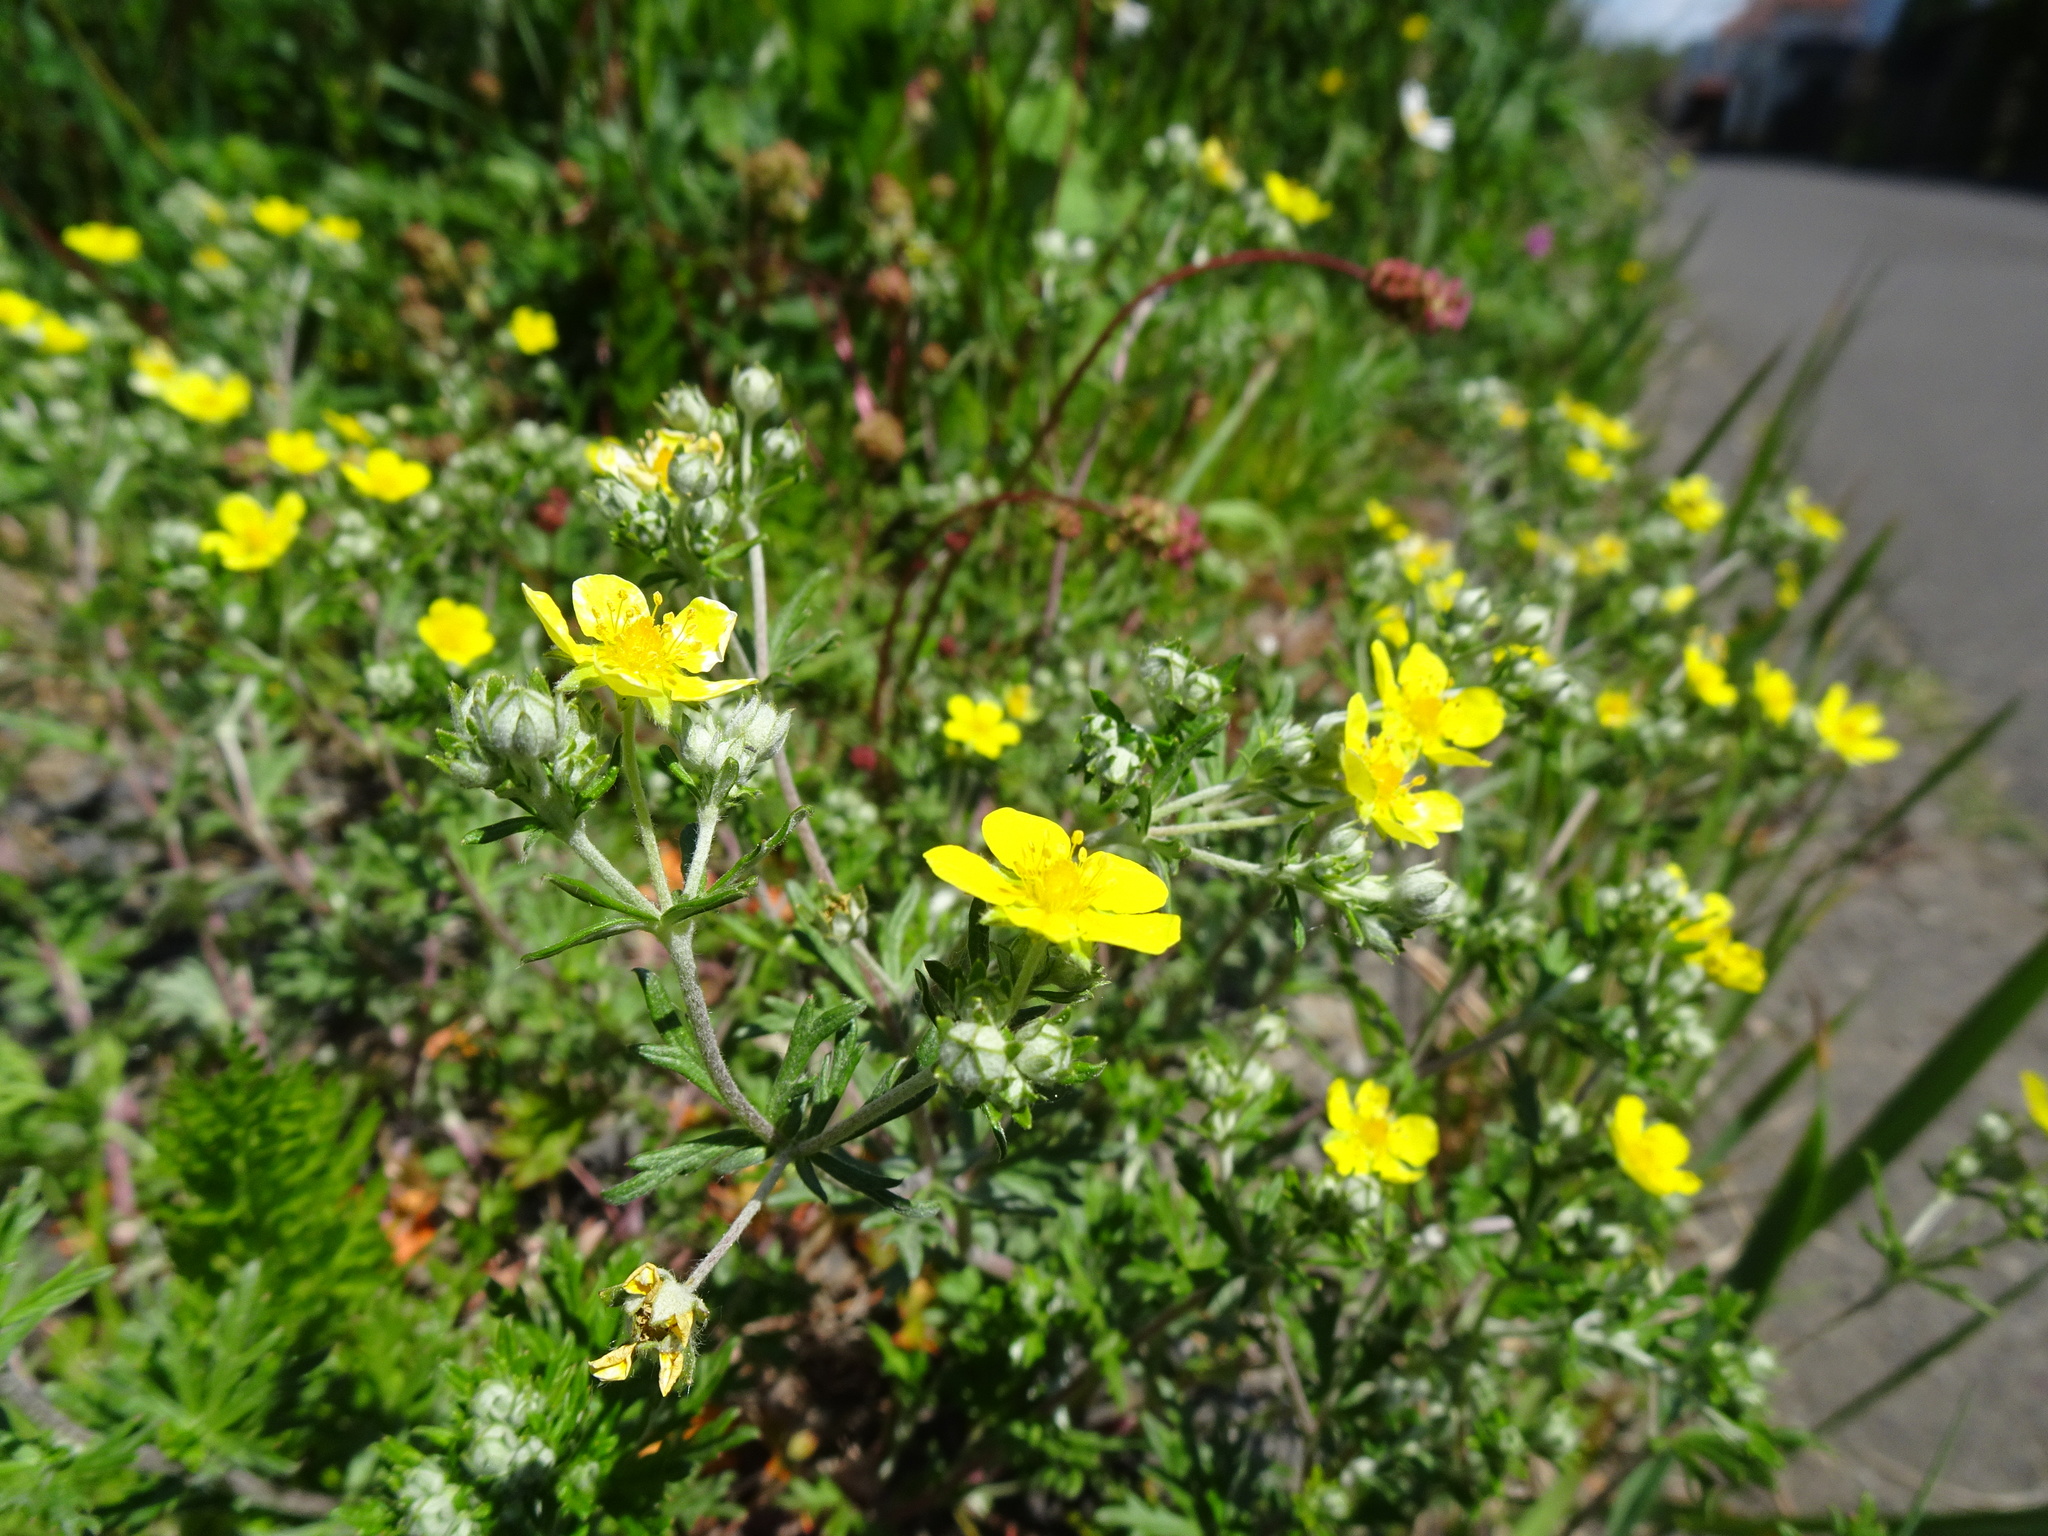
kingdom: Plantae
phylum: Tracheophyta
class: Magnoliopsida
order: Rosales
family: Rosaceae
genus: Potentilla
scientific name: Potentilla argentea
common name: Hoary cinquefoil
